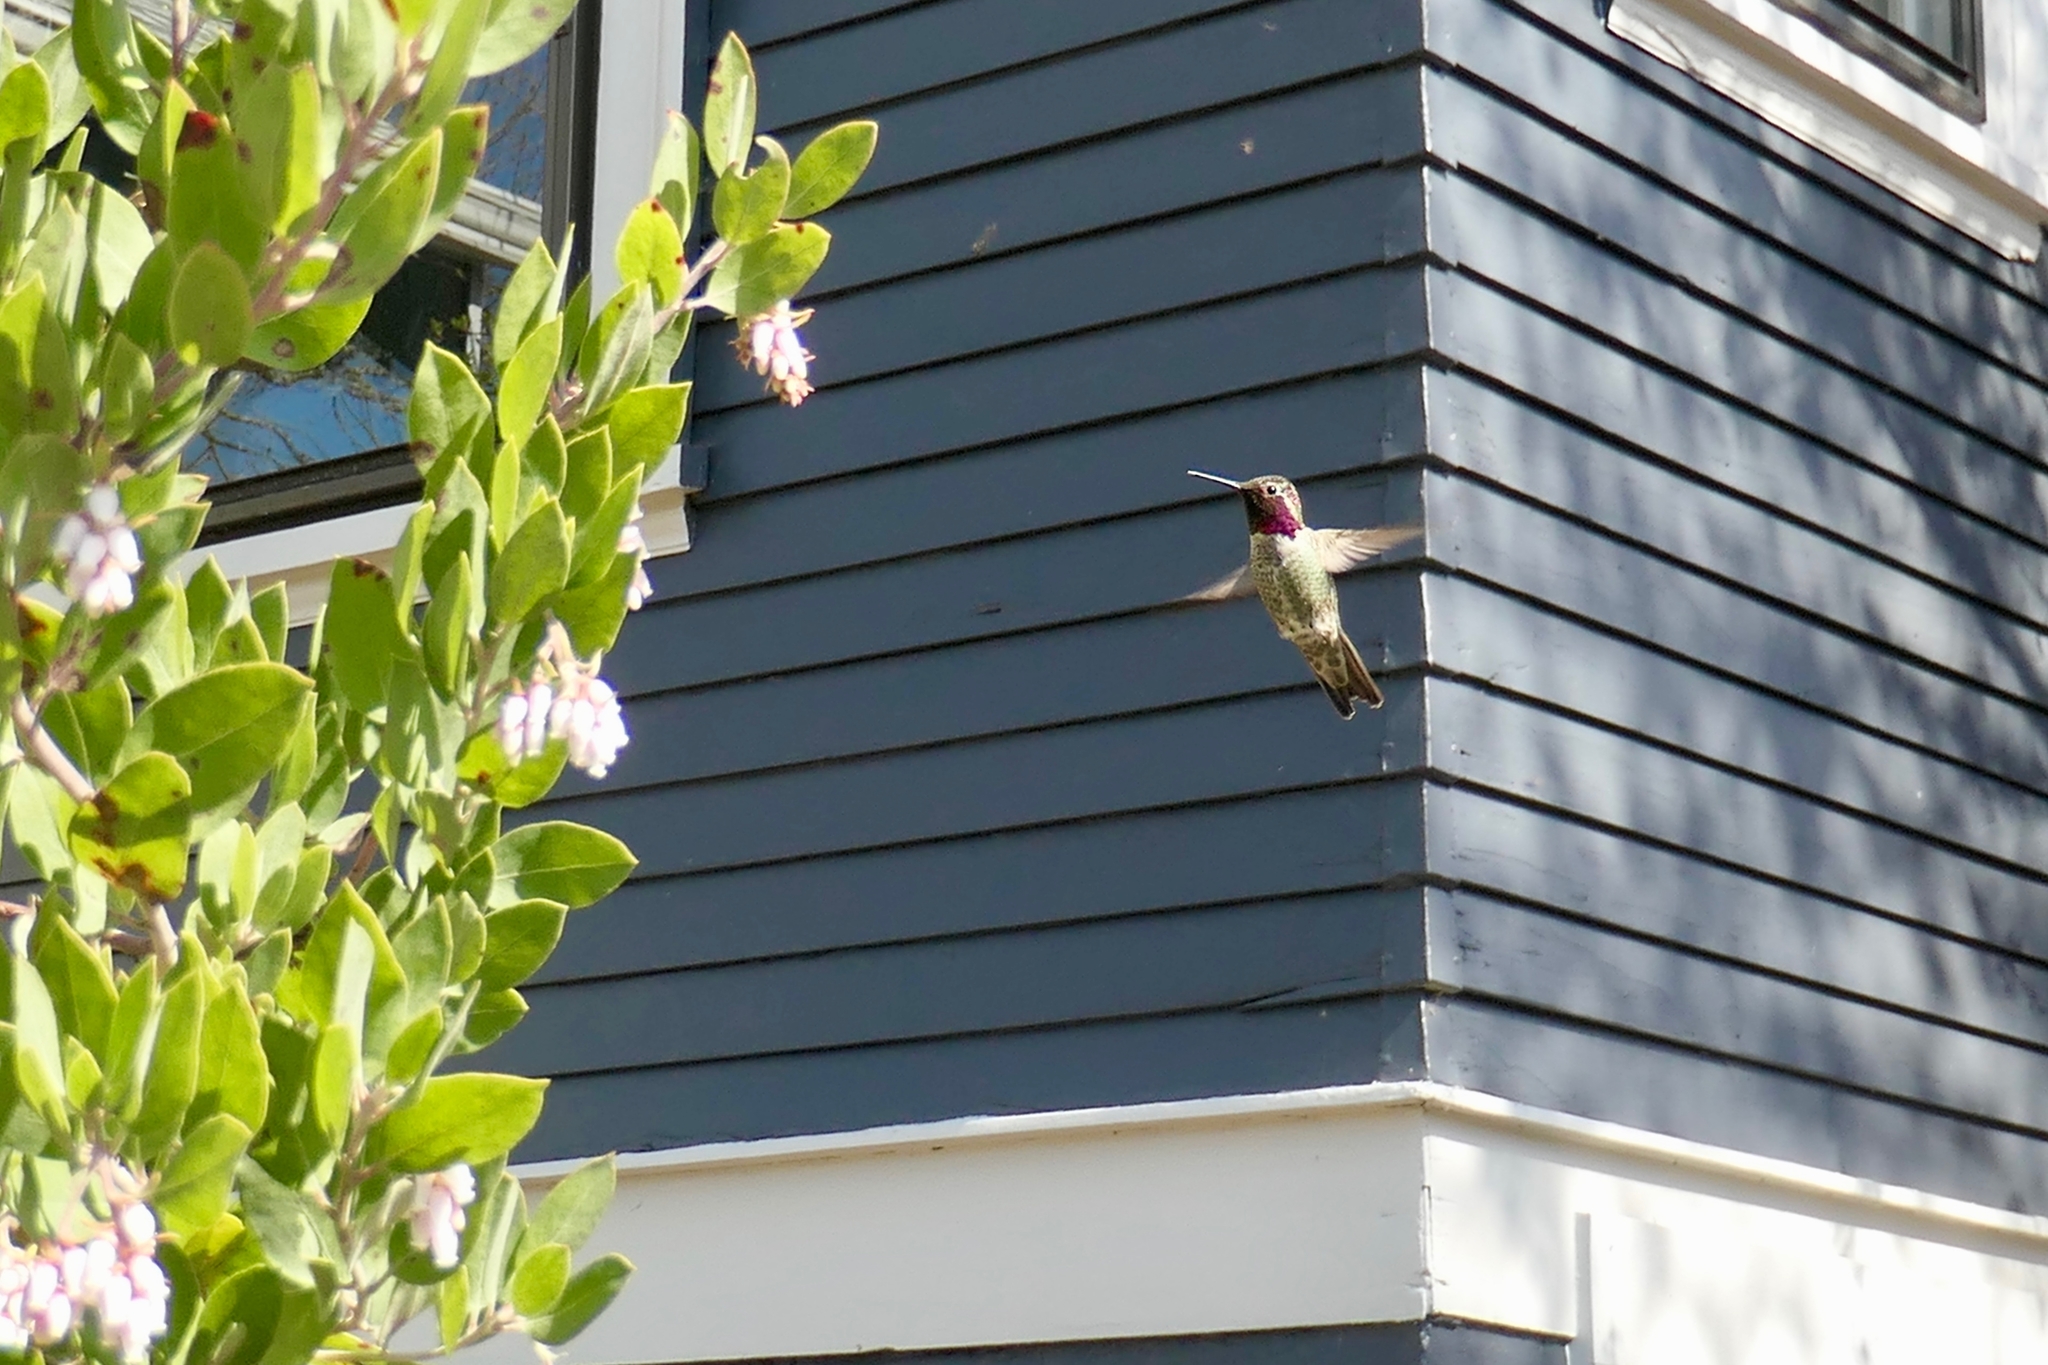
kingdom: Animalia
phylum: Chordata
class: Aves
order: Apodiformes
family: Trochilidae
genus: Calypte
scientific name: Calypte anna
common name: Anna's hummingbird
